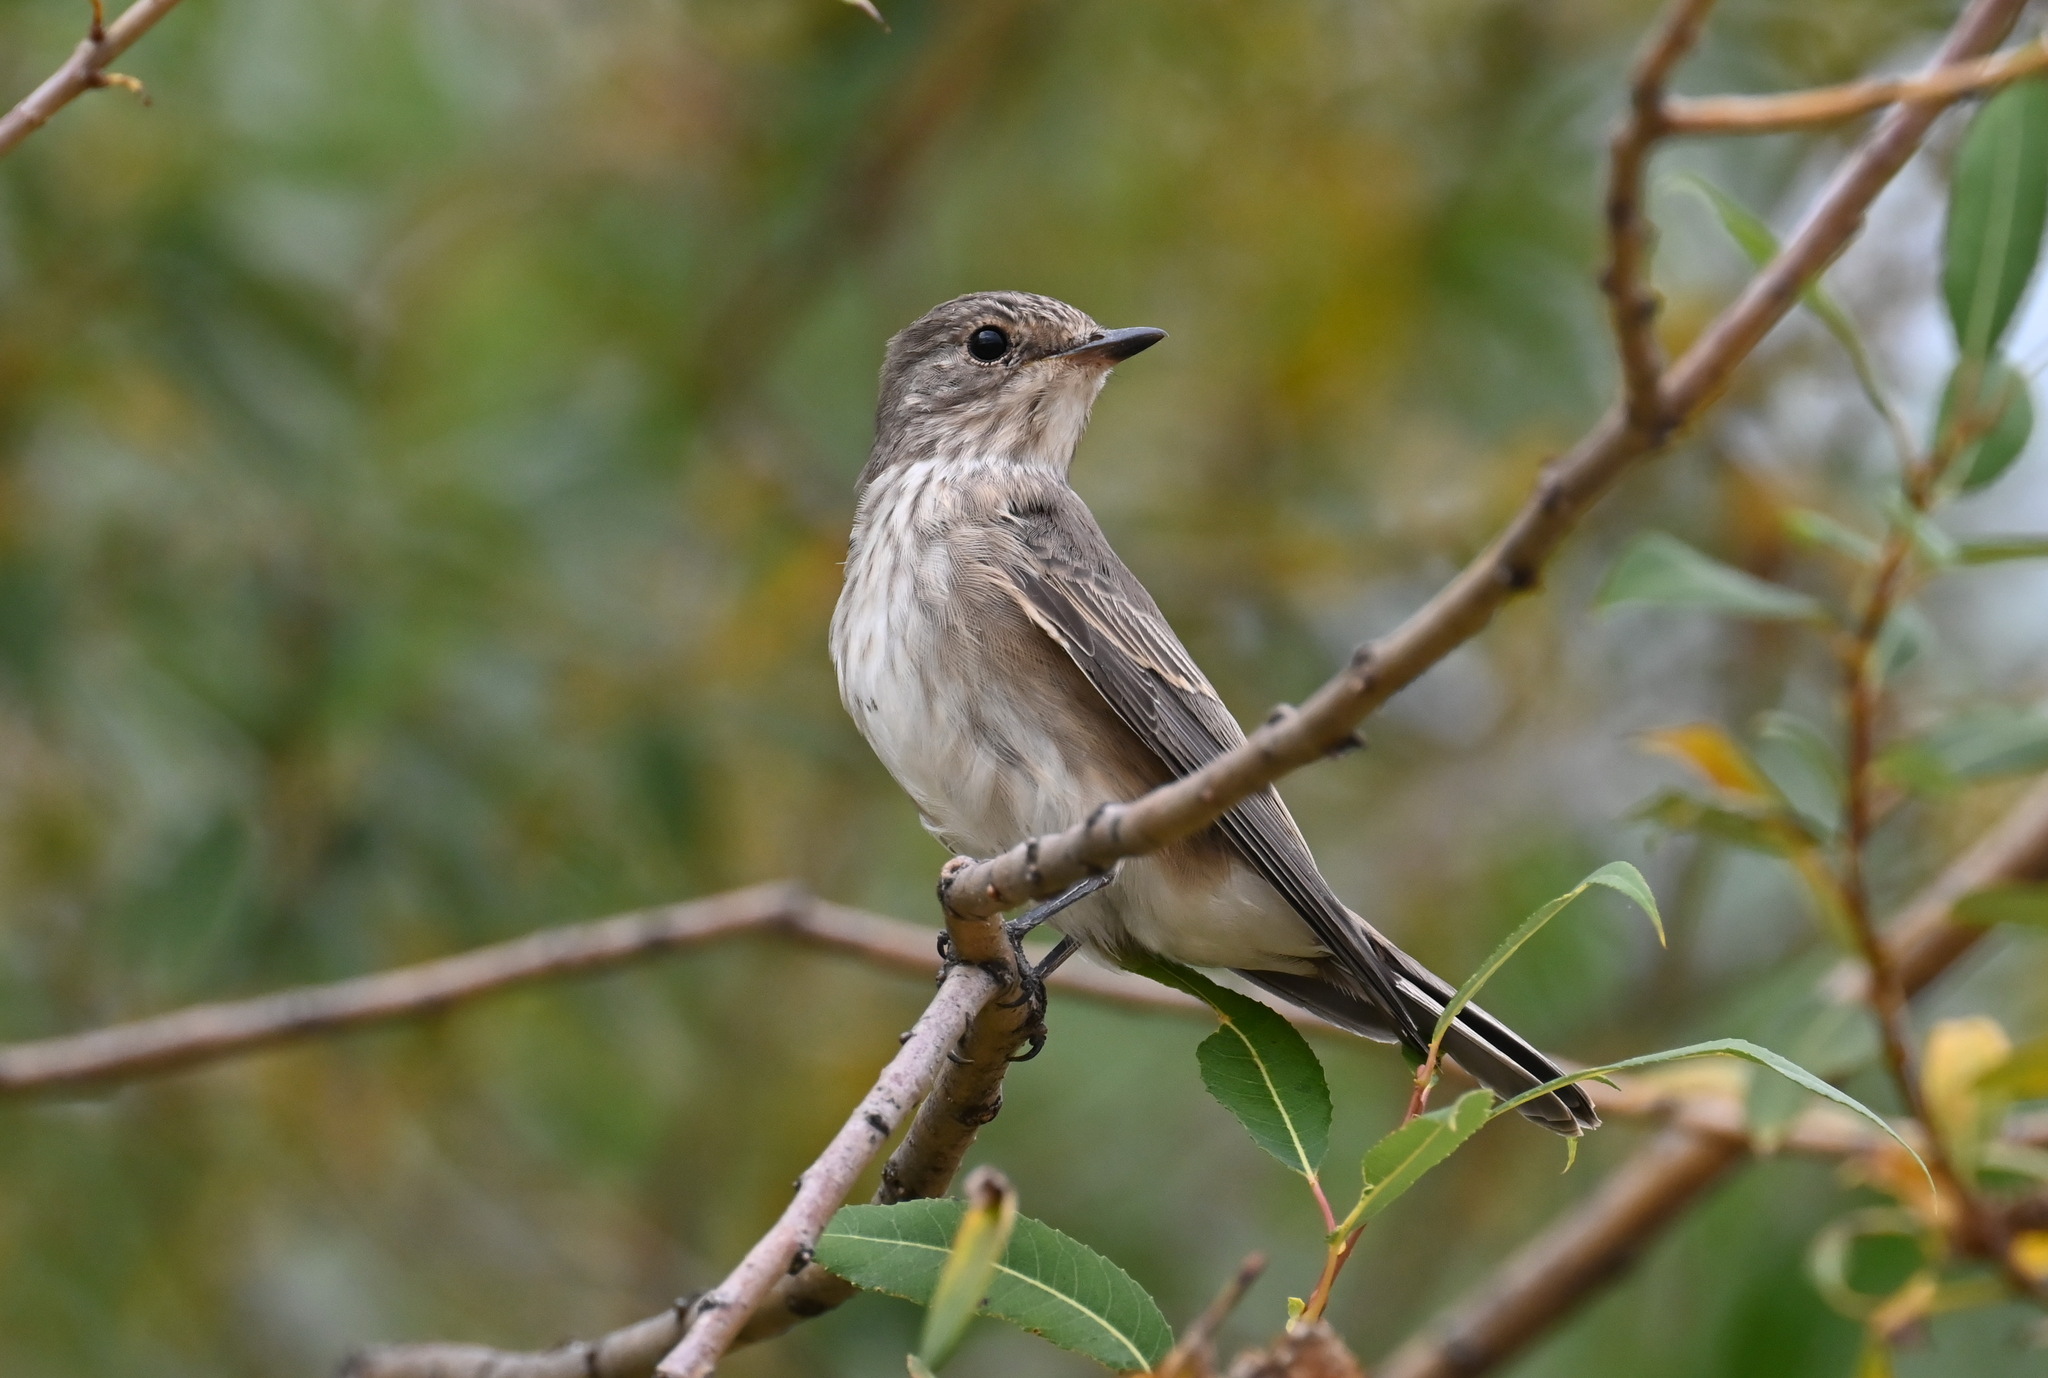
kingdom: Animalia
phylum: Chordata
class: Aves
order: Passeriformes
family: Muscicapidae
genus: Muscicapa
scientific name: Muscicapa striata
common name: Spotted flycatcher
